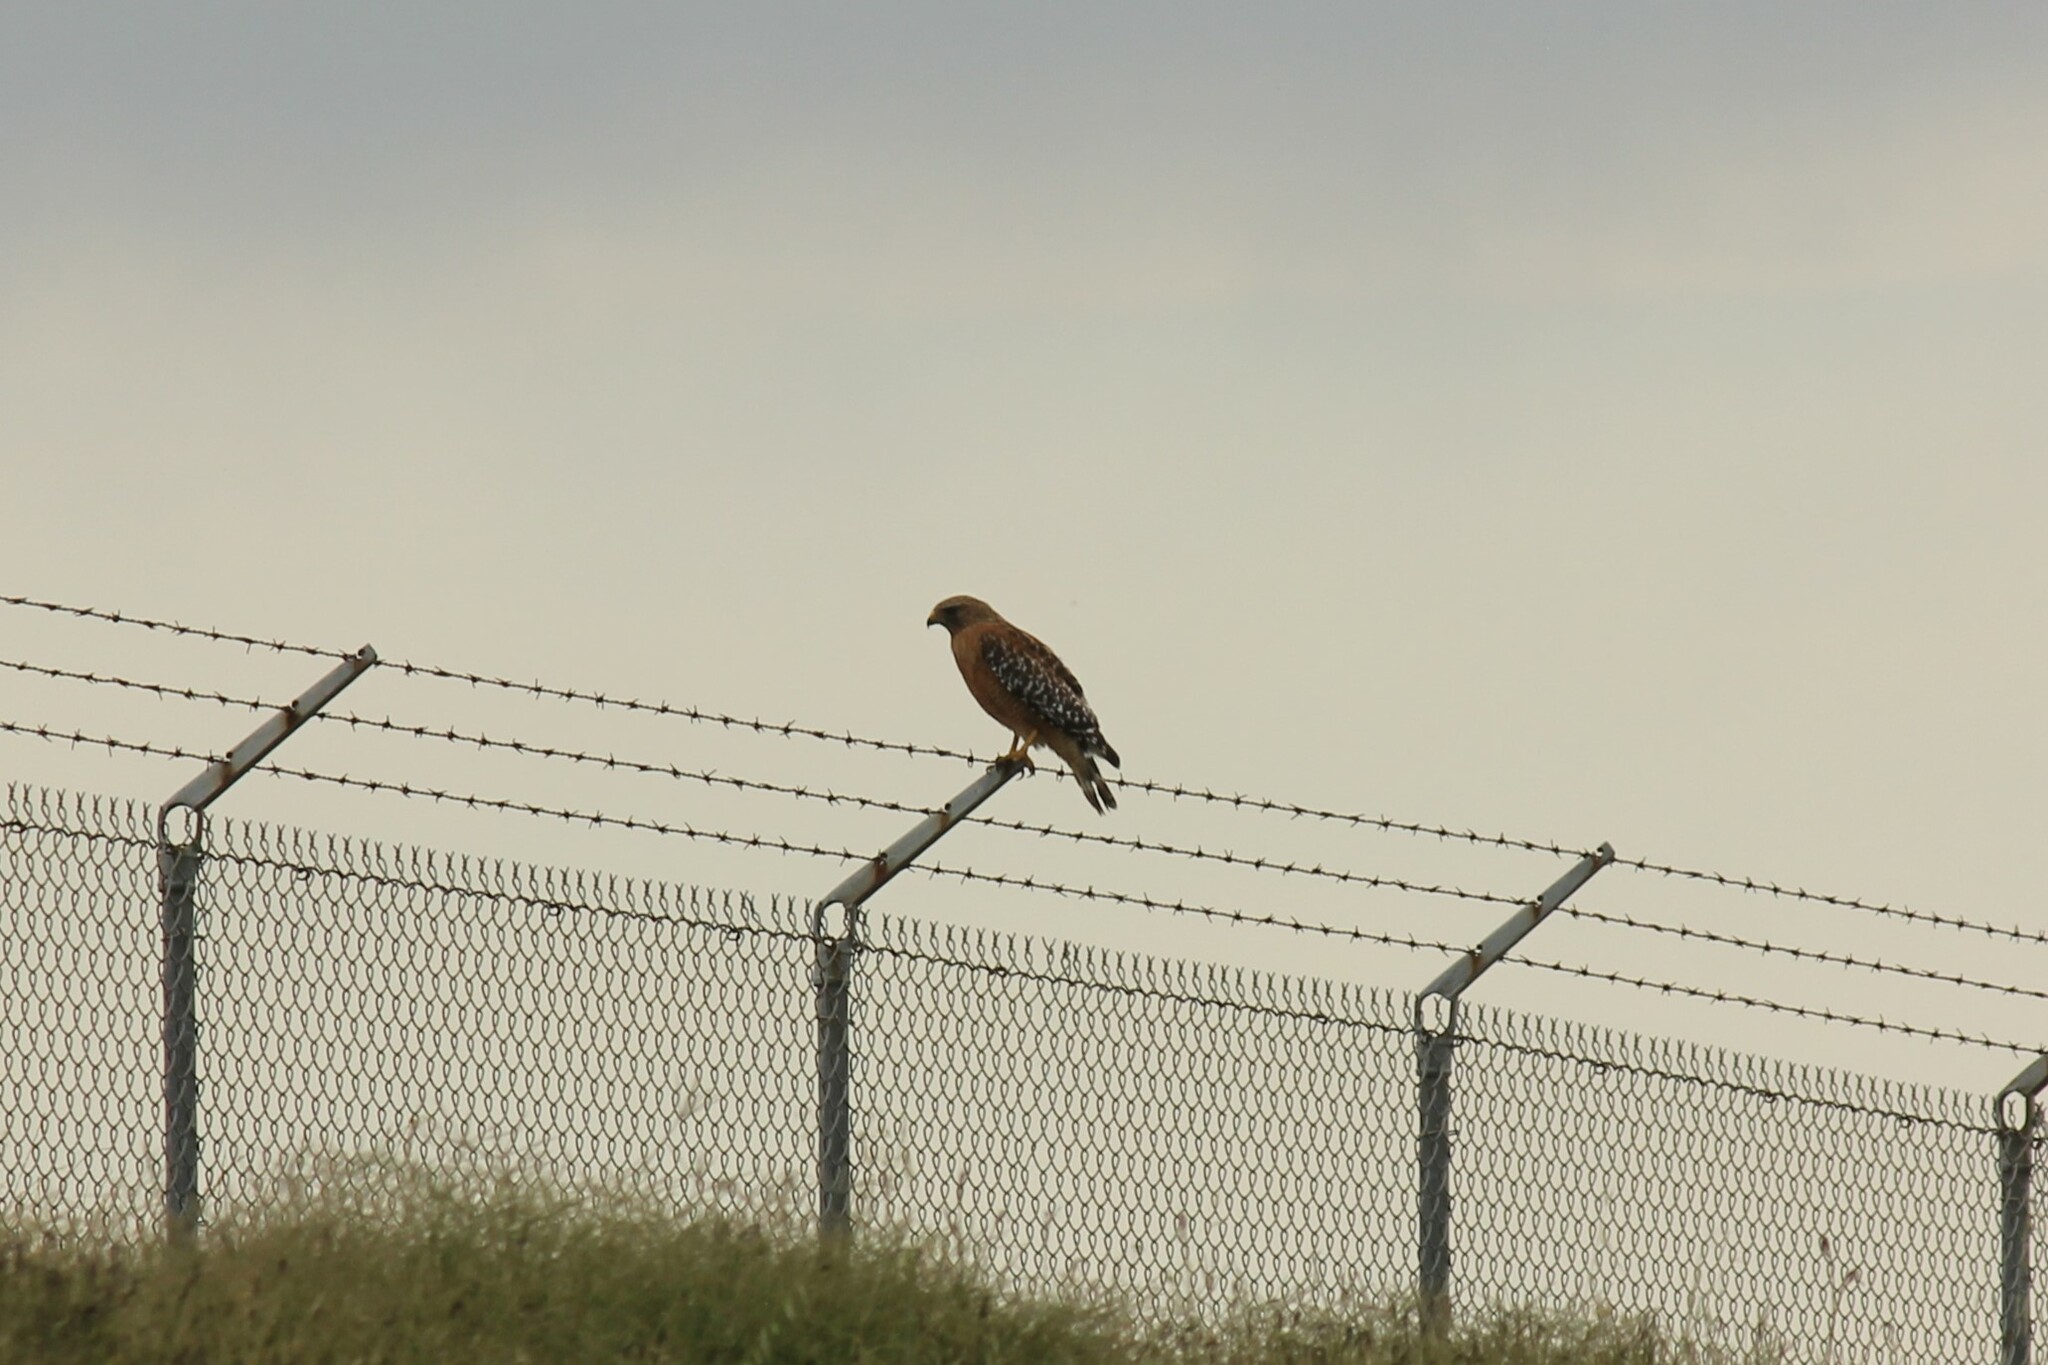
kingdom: Animalia
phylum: Chordata
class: Aves
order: Accipitriformes
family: Accipitridae
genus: Buteo
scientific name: Buteo lineatus
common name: Red-shouldered hawk
